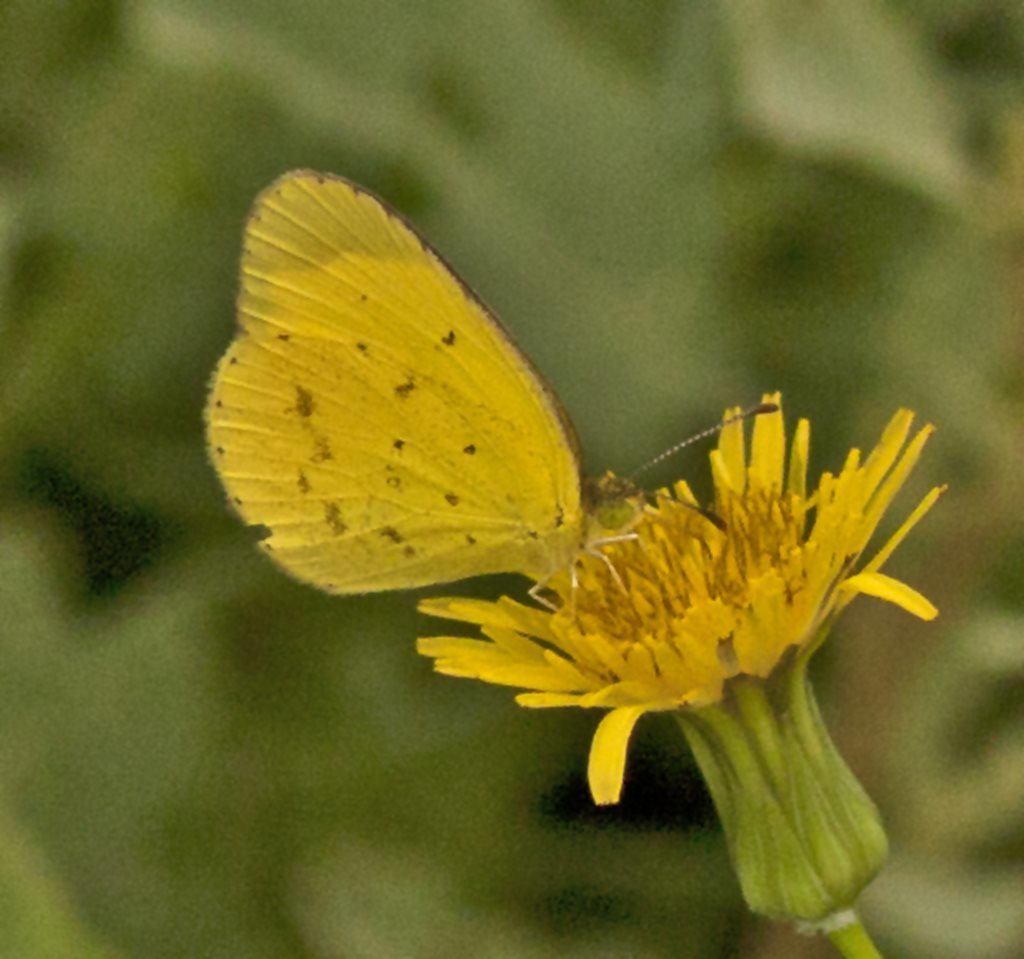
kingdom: Animalia
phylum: Arthropoda
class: Insecta
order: Lepidoptera
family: Pieridae
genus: Eurema
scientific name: Eurema smilax
